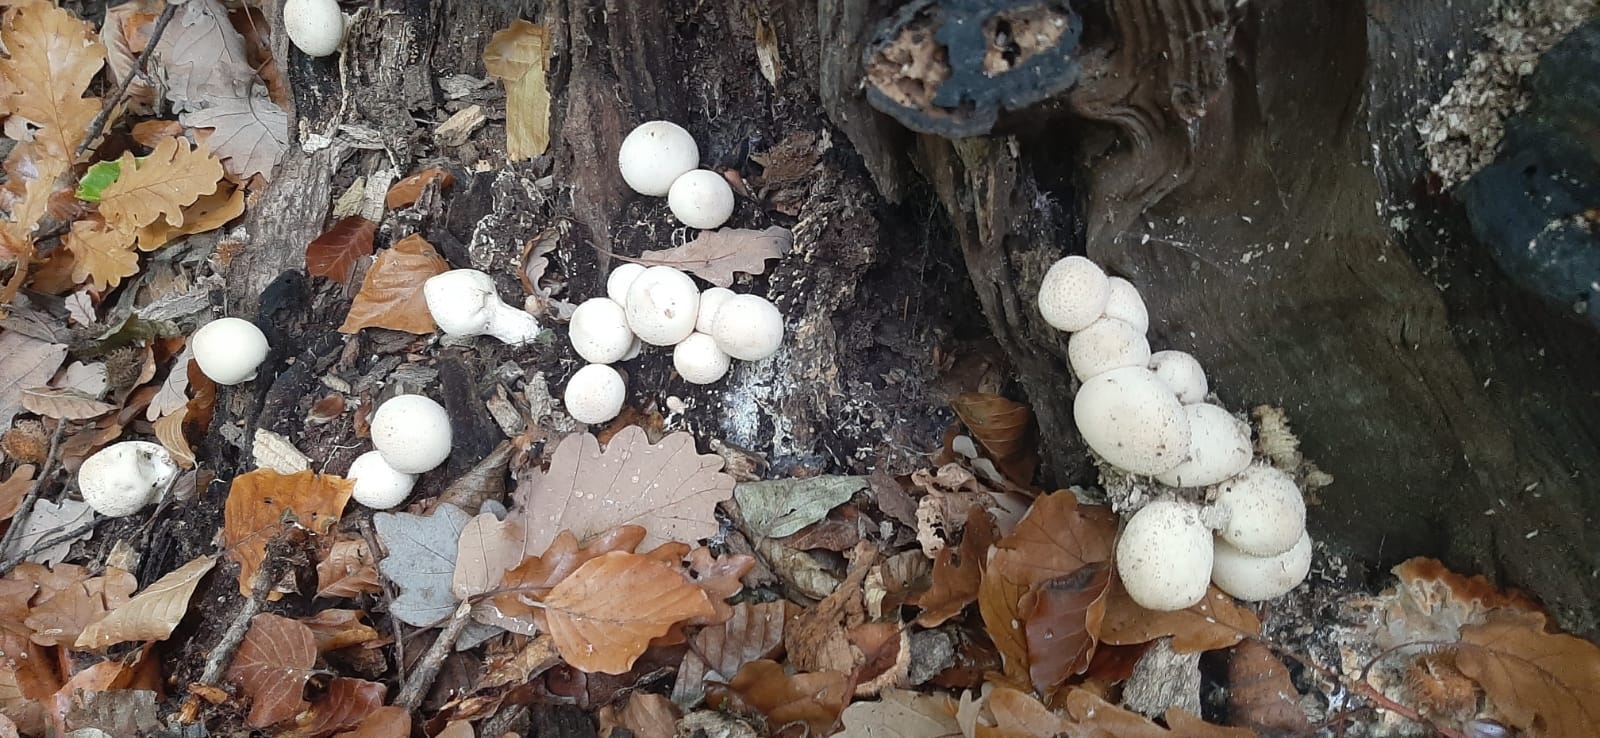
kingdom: Fungi
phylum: Basidiomycota
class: Agaricomycetes
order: Agaricales
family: Lycoperdaceae
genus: Apioperdon
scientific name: Apioperdon pyriforme
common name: Pear-shaped puffball
